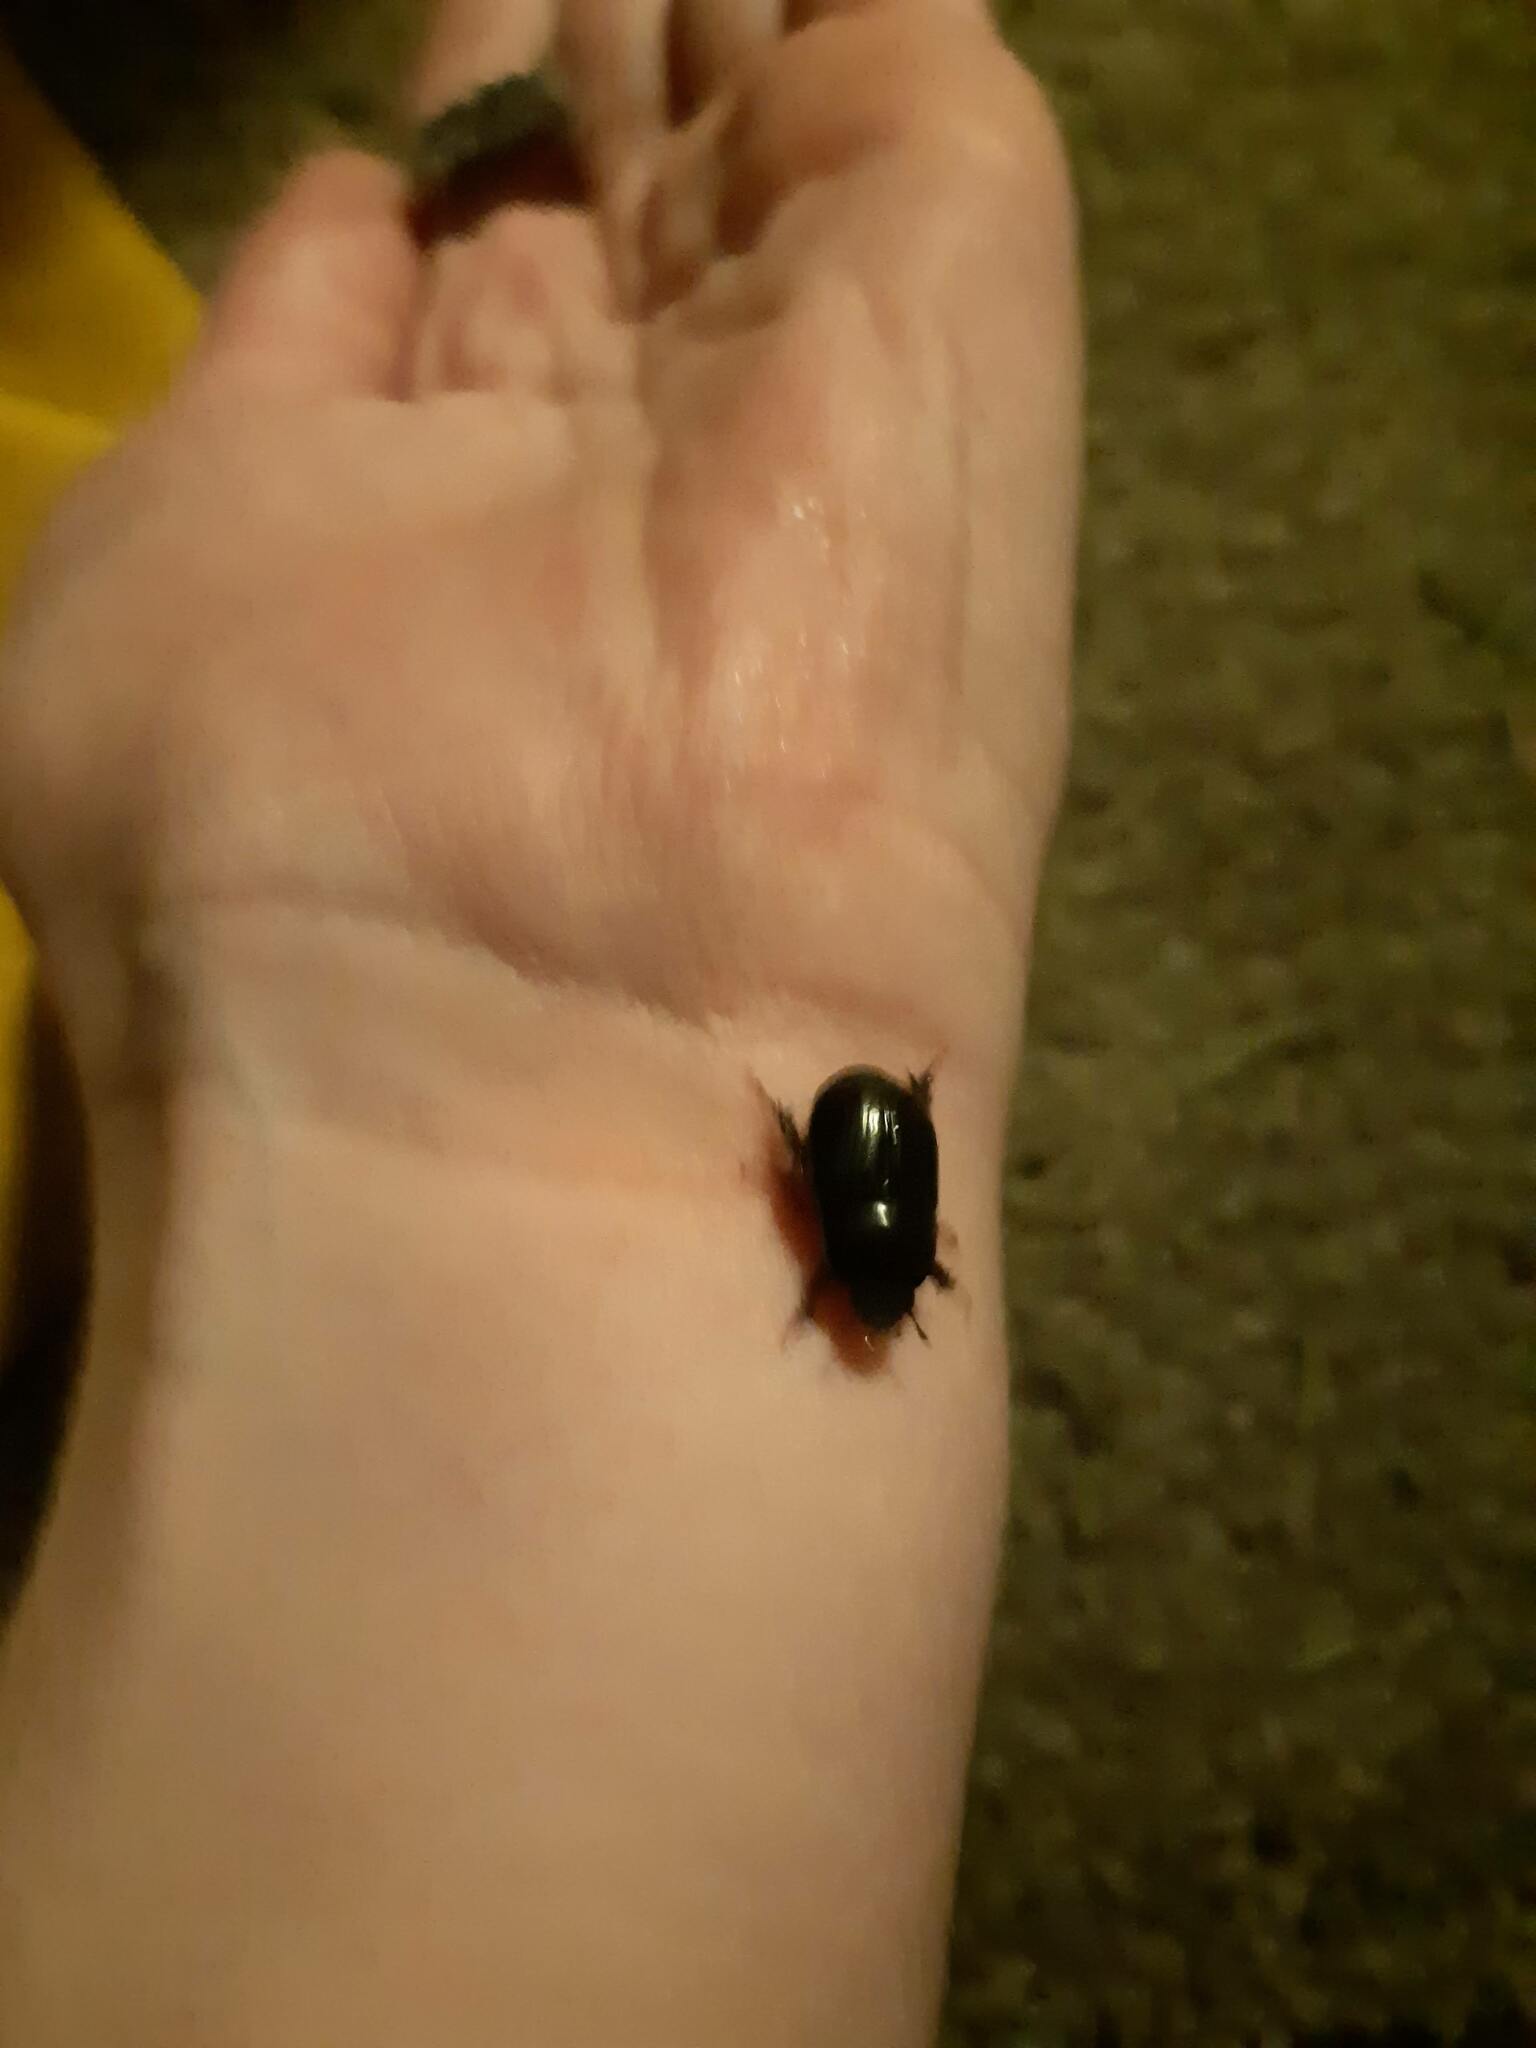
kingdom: Animalia
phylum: Arthropoda
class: Insecta
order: Coleoptera
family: Scarabaeidae
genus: Heteronychus
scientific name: Heteronychus arator
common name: African black beetle
